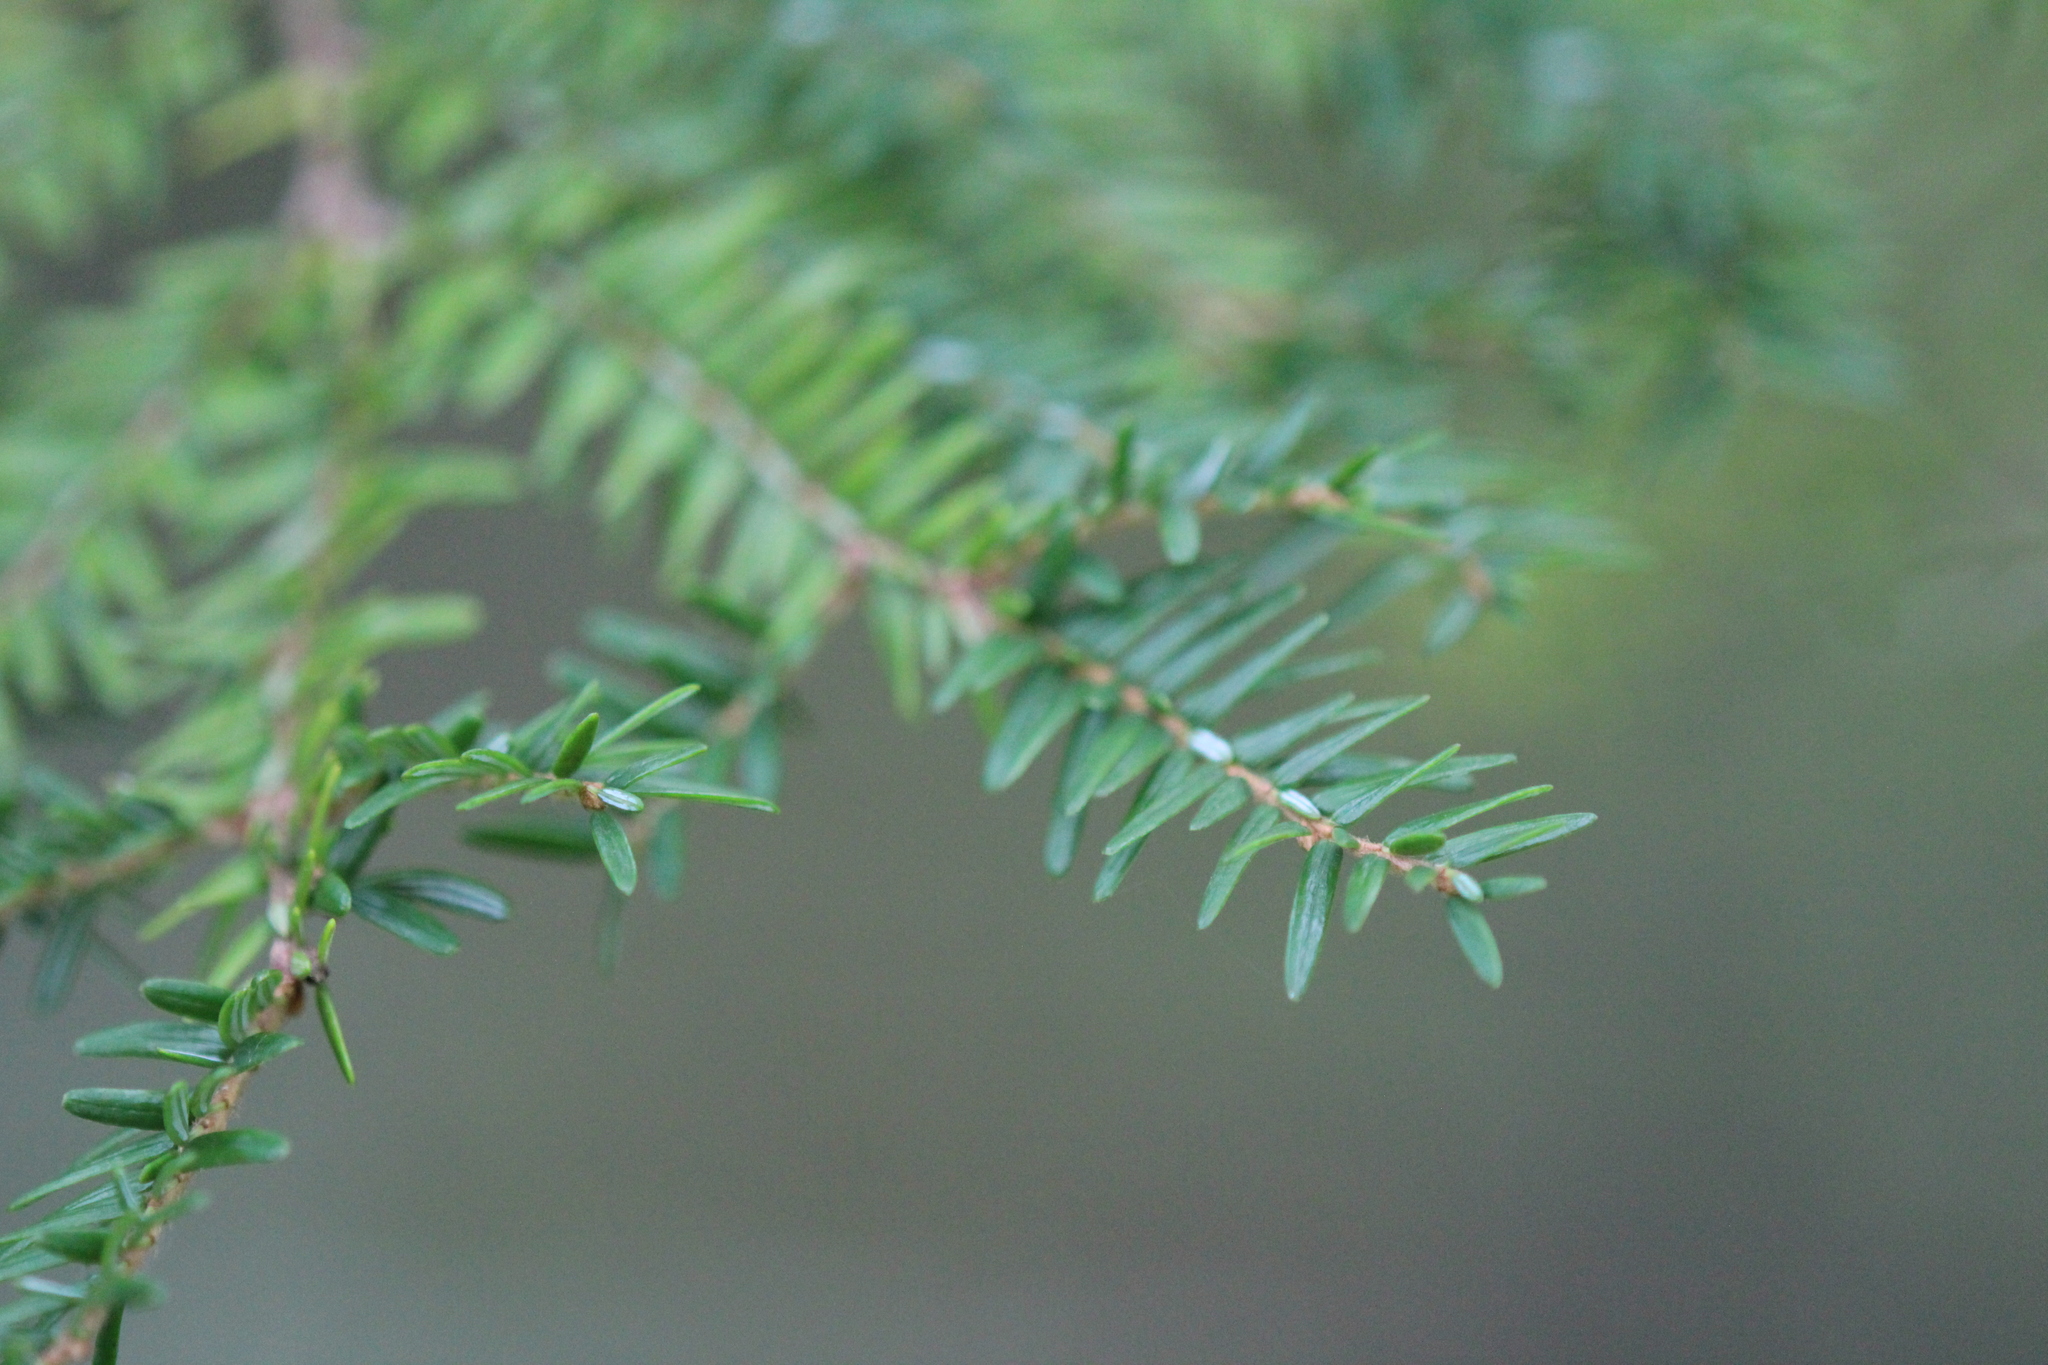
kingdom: Plantae
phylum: Tracheophyta
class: Pinopsida
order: Pinales
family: Pinaceae
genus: Tsuga
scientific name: Tsuga canadensis
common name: Eastern hemlock
